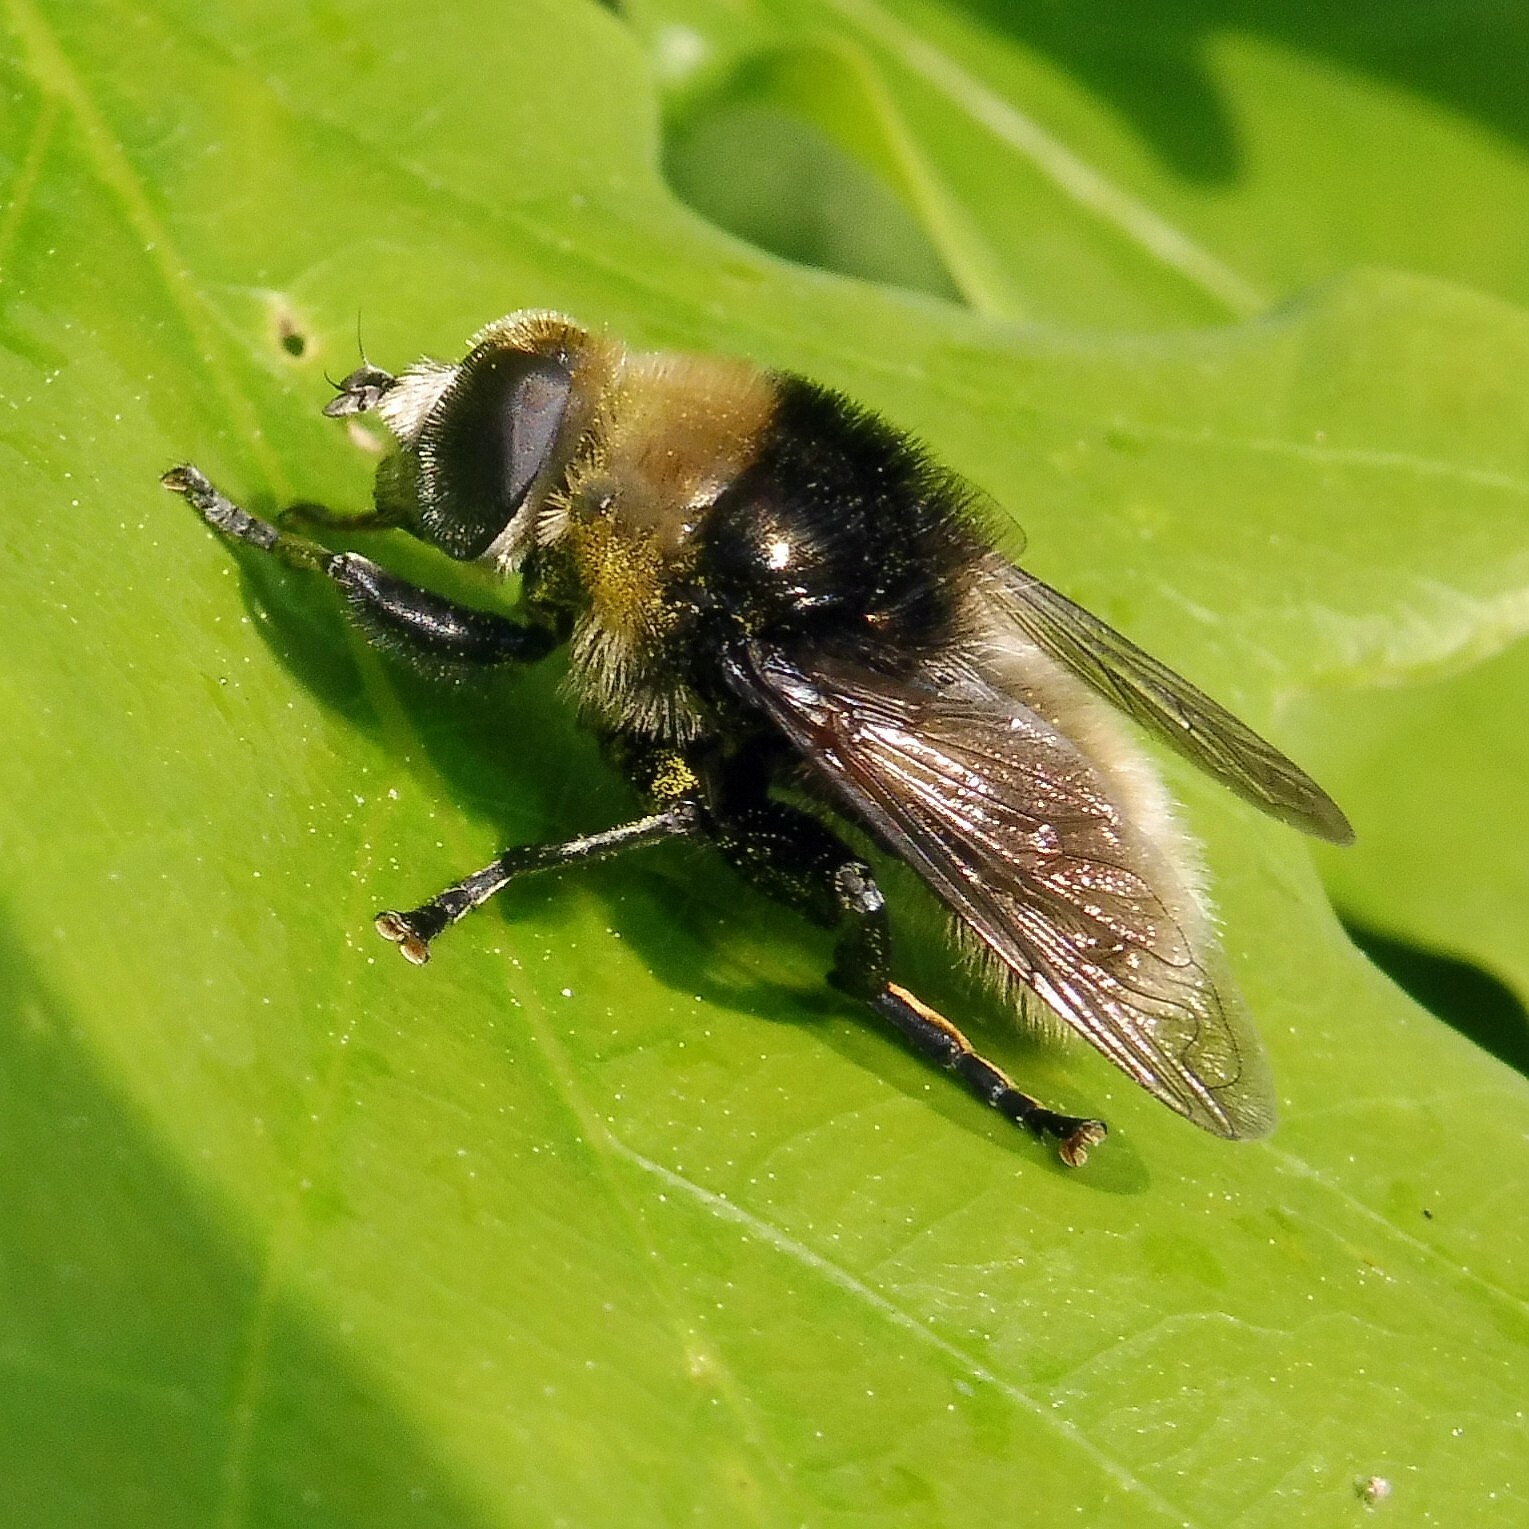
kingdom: Animalia
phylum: Arthropoda
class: Insecta
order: Diptera
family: Syrphidae
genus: Merodon
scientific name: Merodon equestris
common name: Greater bulb-fly
